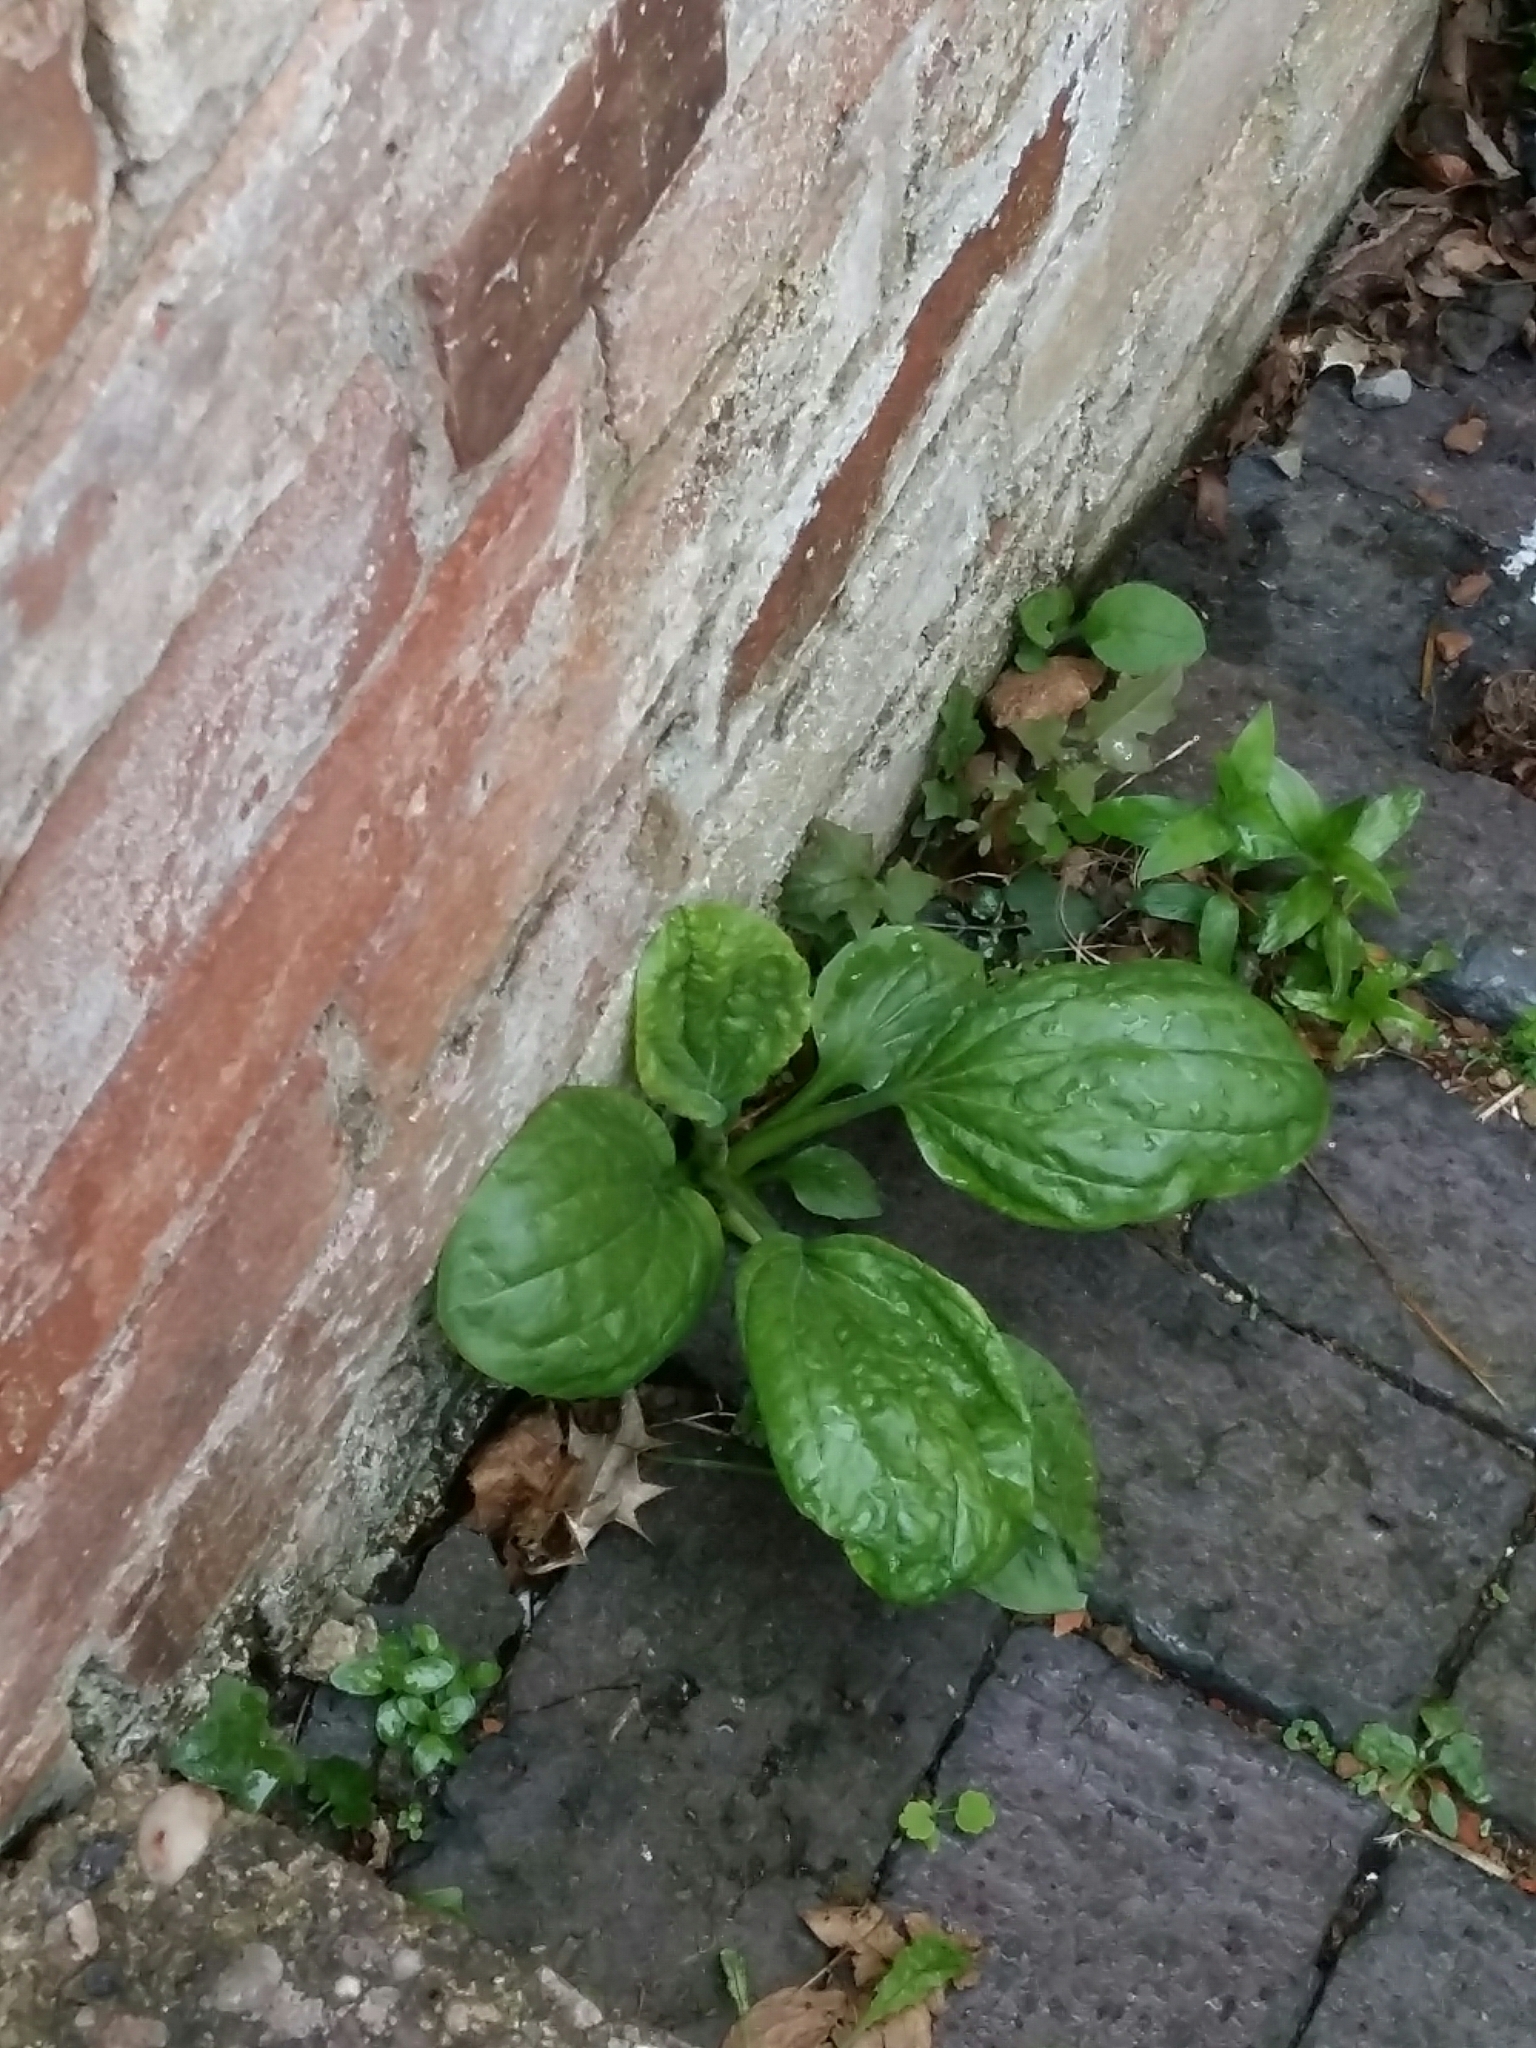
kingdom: Plantae
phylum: Tracheophyta
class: Magnoliopsida
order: Lamiales
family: Plantaginaceae
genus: Plantago
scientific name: Plantago major
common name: Common plantain
